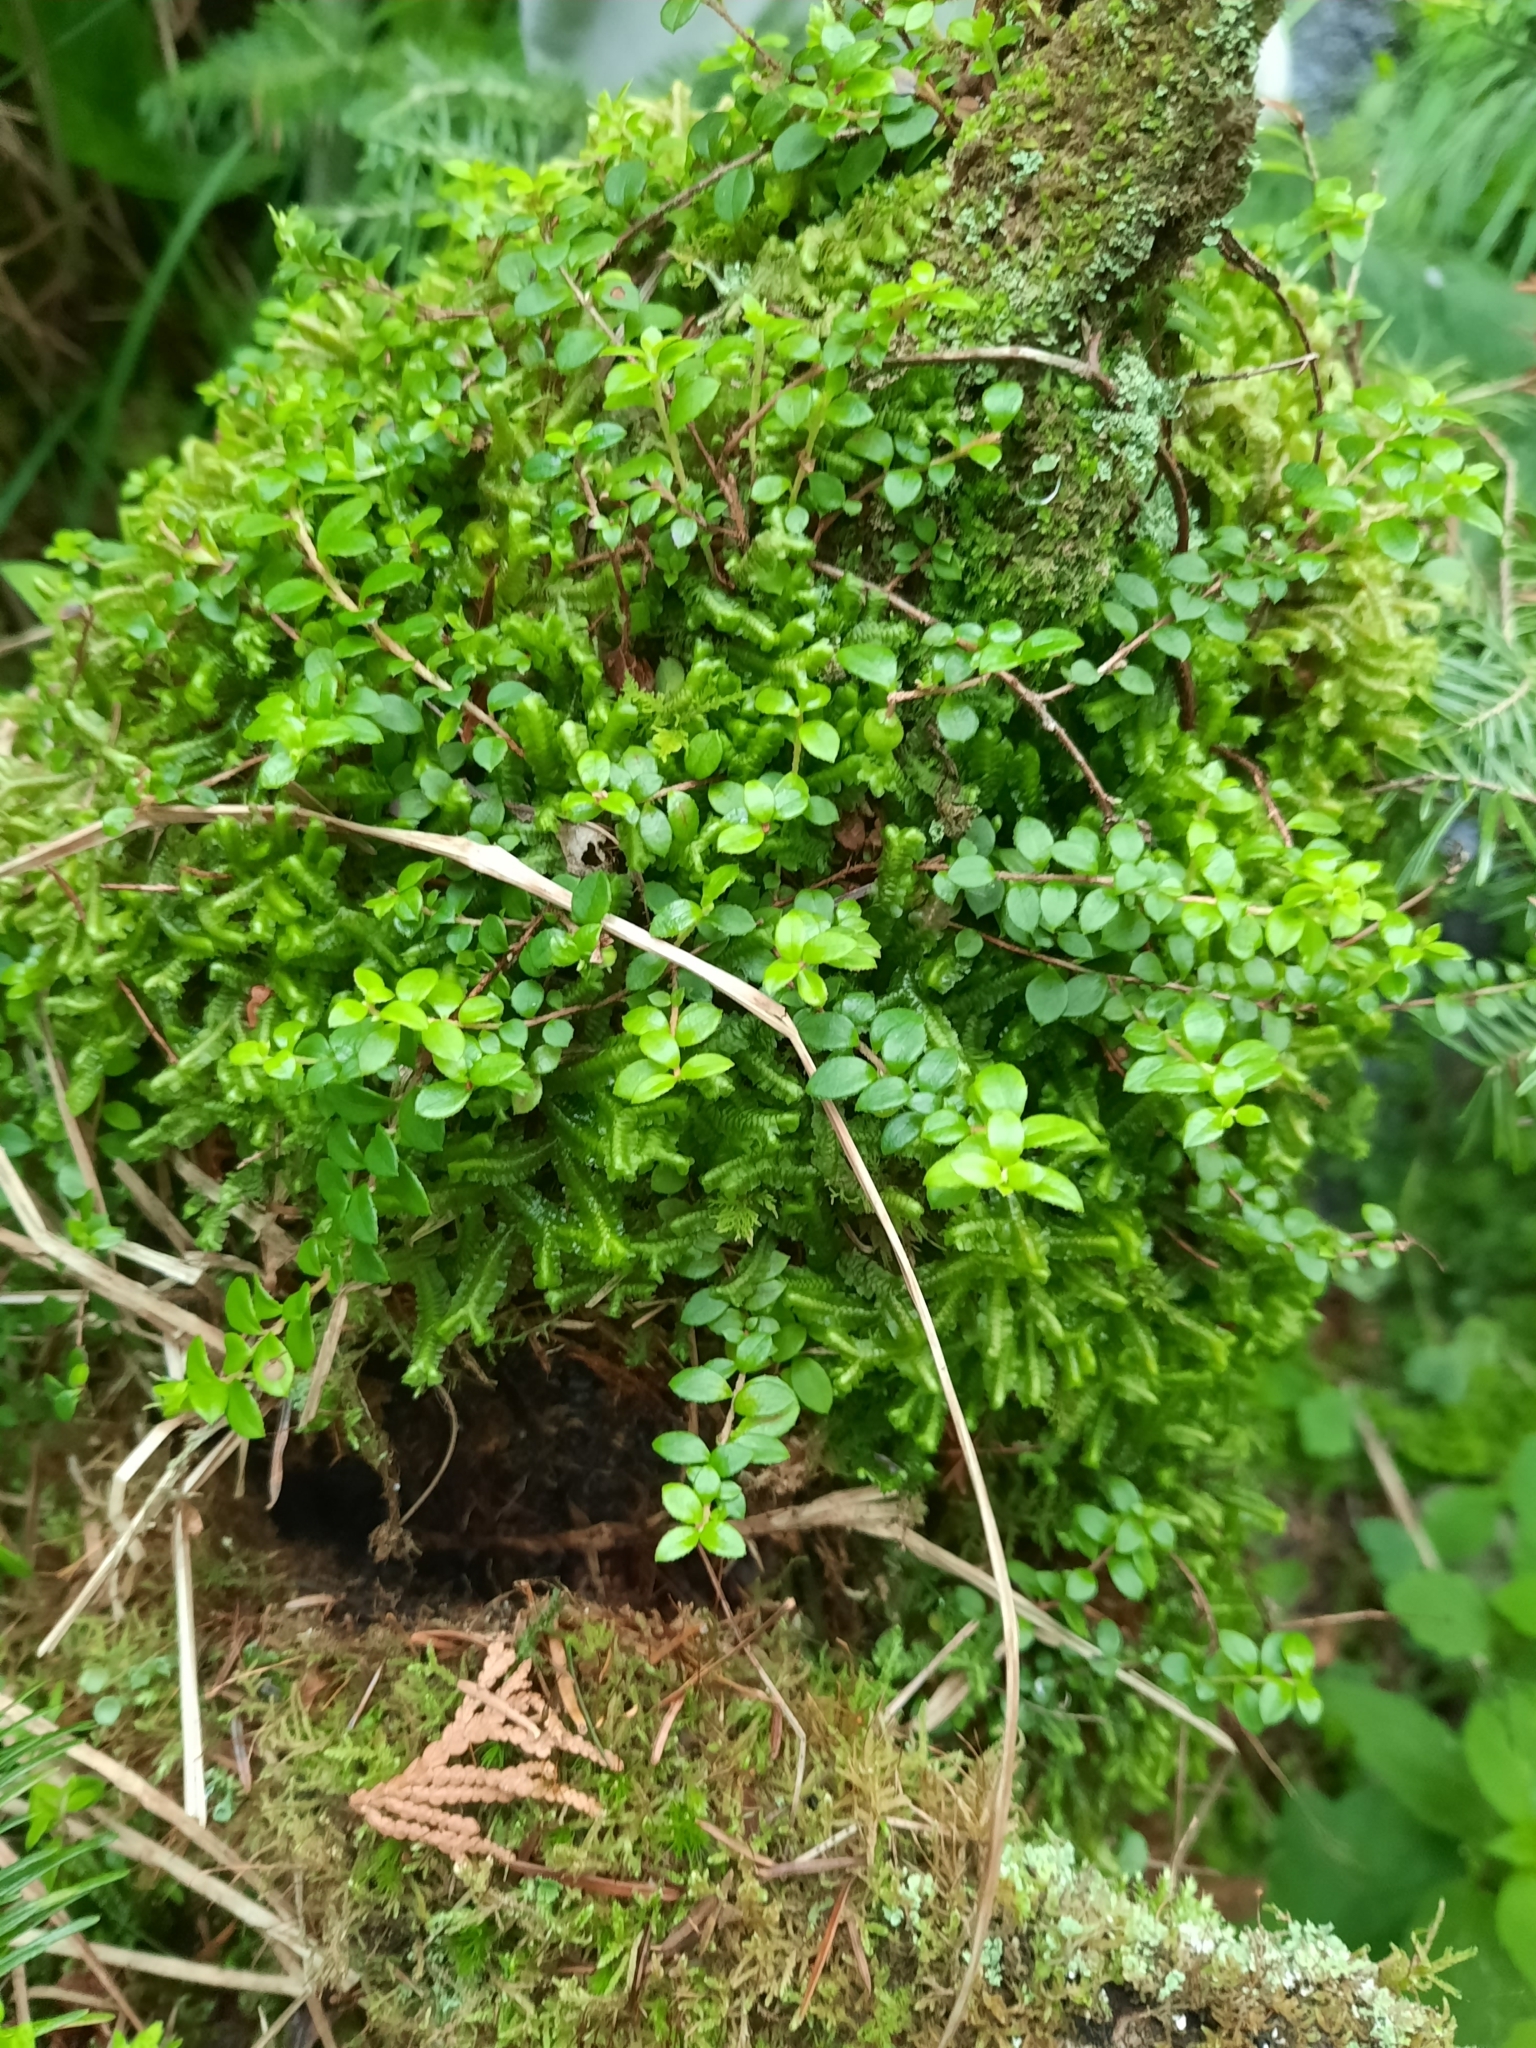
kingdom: Plantae
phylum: Tracheophyta
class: Magnoliopsida
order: Ericales
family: Ericaceae
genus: Gaultheria
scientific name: Gaultheria hispidula
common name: Cancer wintergreen
